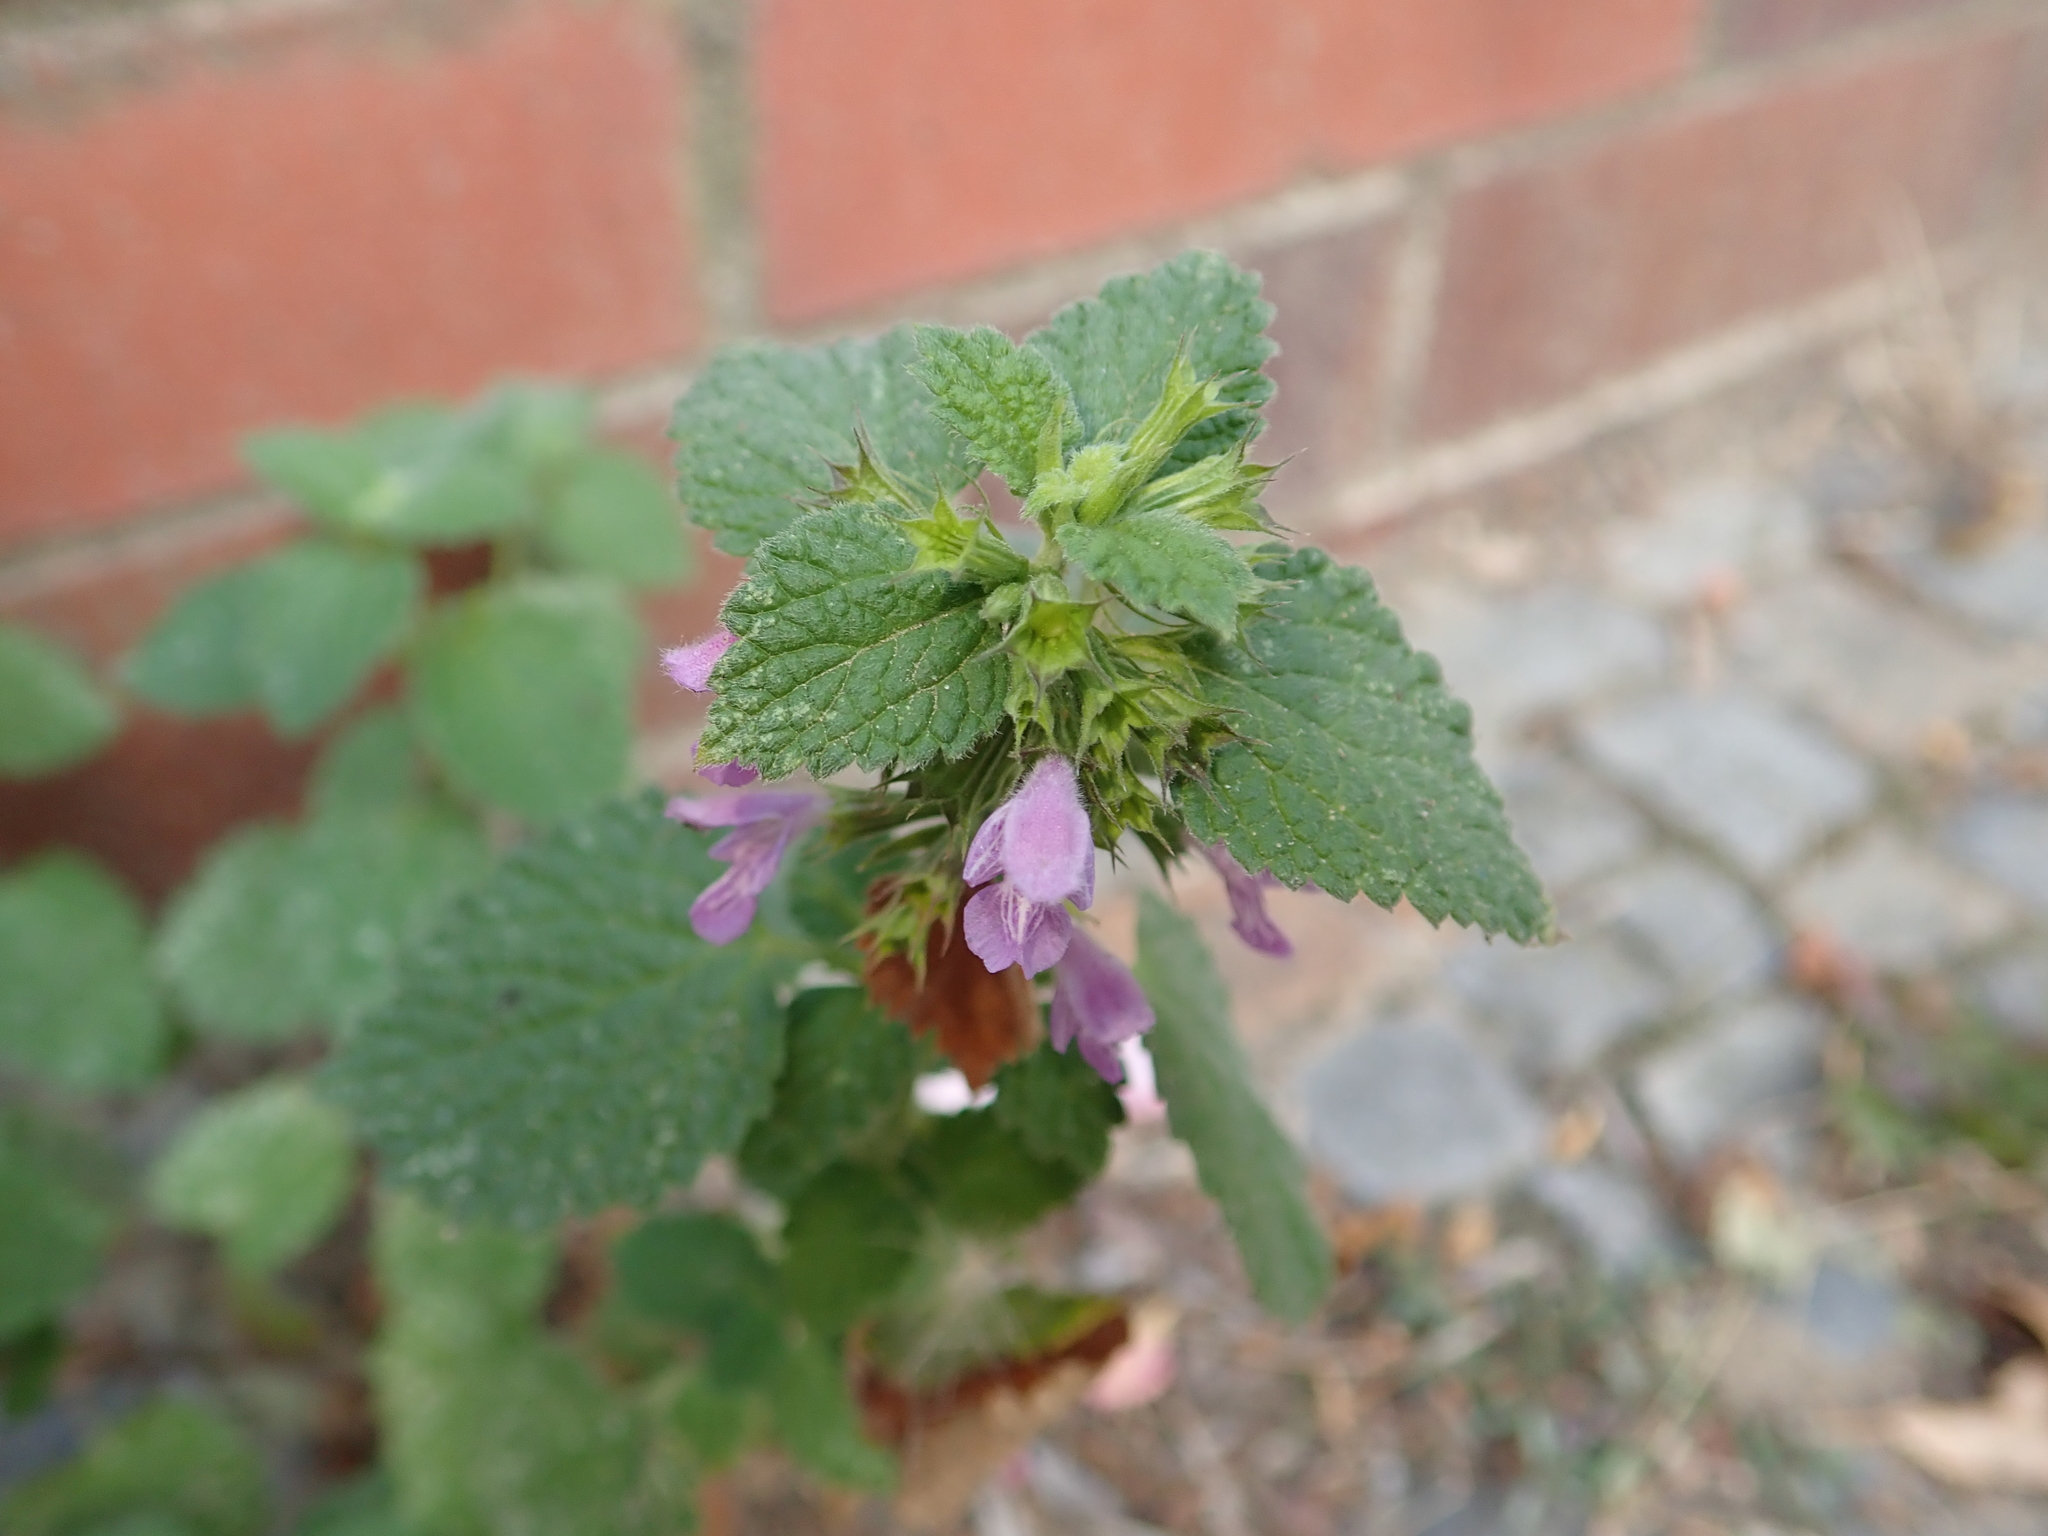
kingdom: Plantae
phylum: Tracheophyta
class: Magnoliopsida
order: Lamiales
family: Lamiaceae
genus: Ballota
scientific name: Ballota nigra
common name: Black horehound
